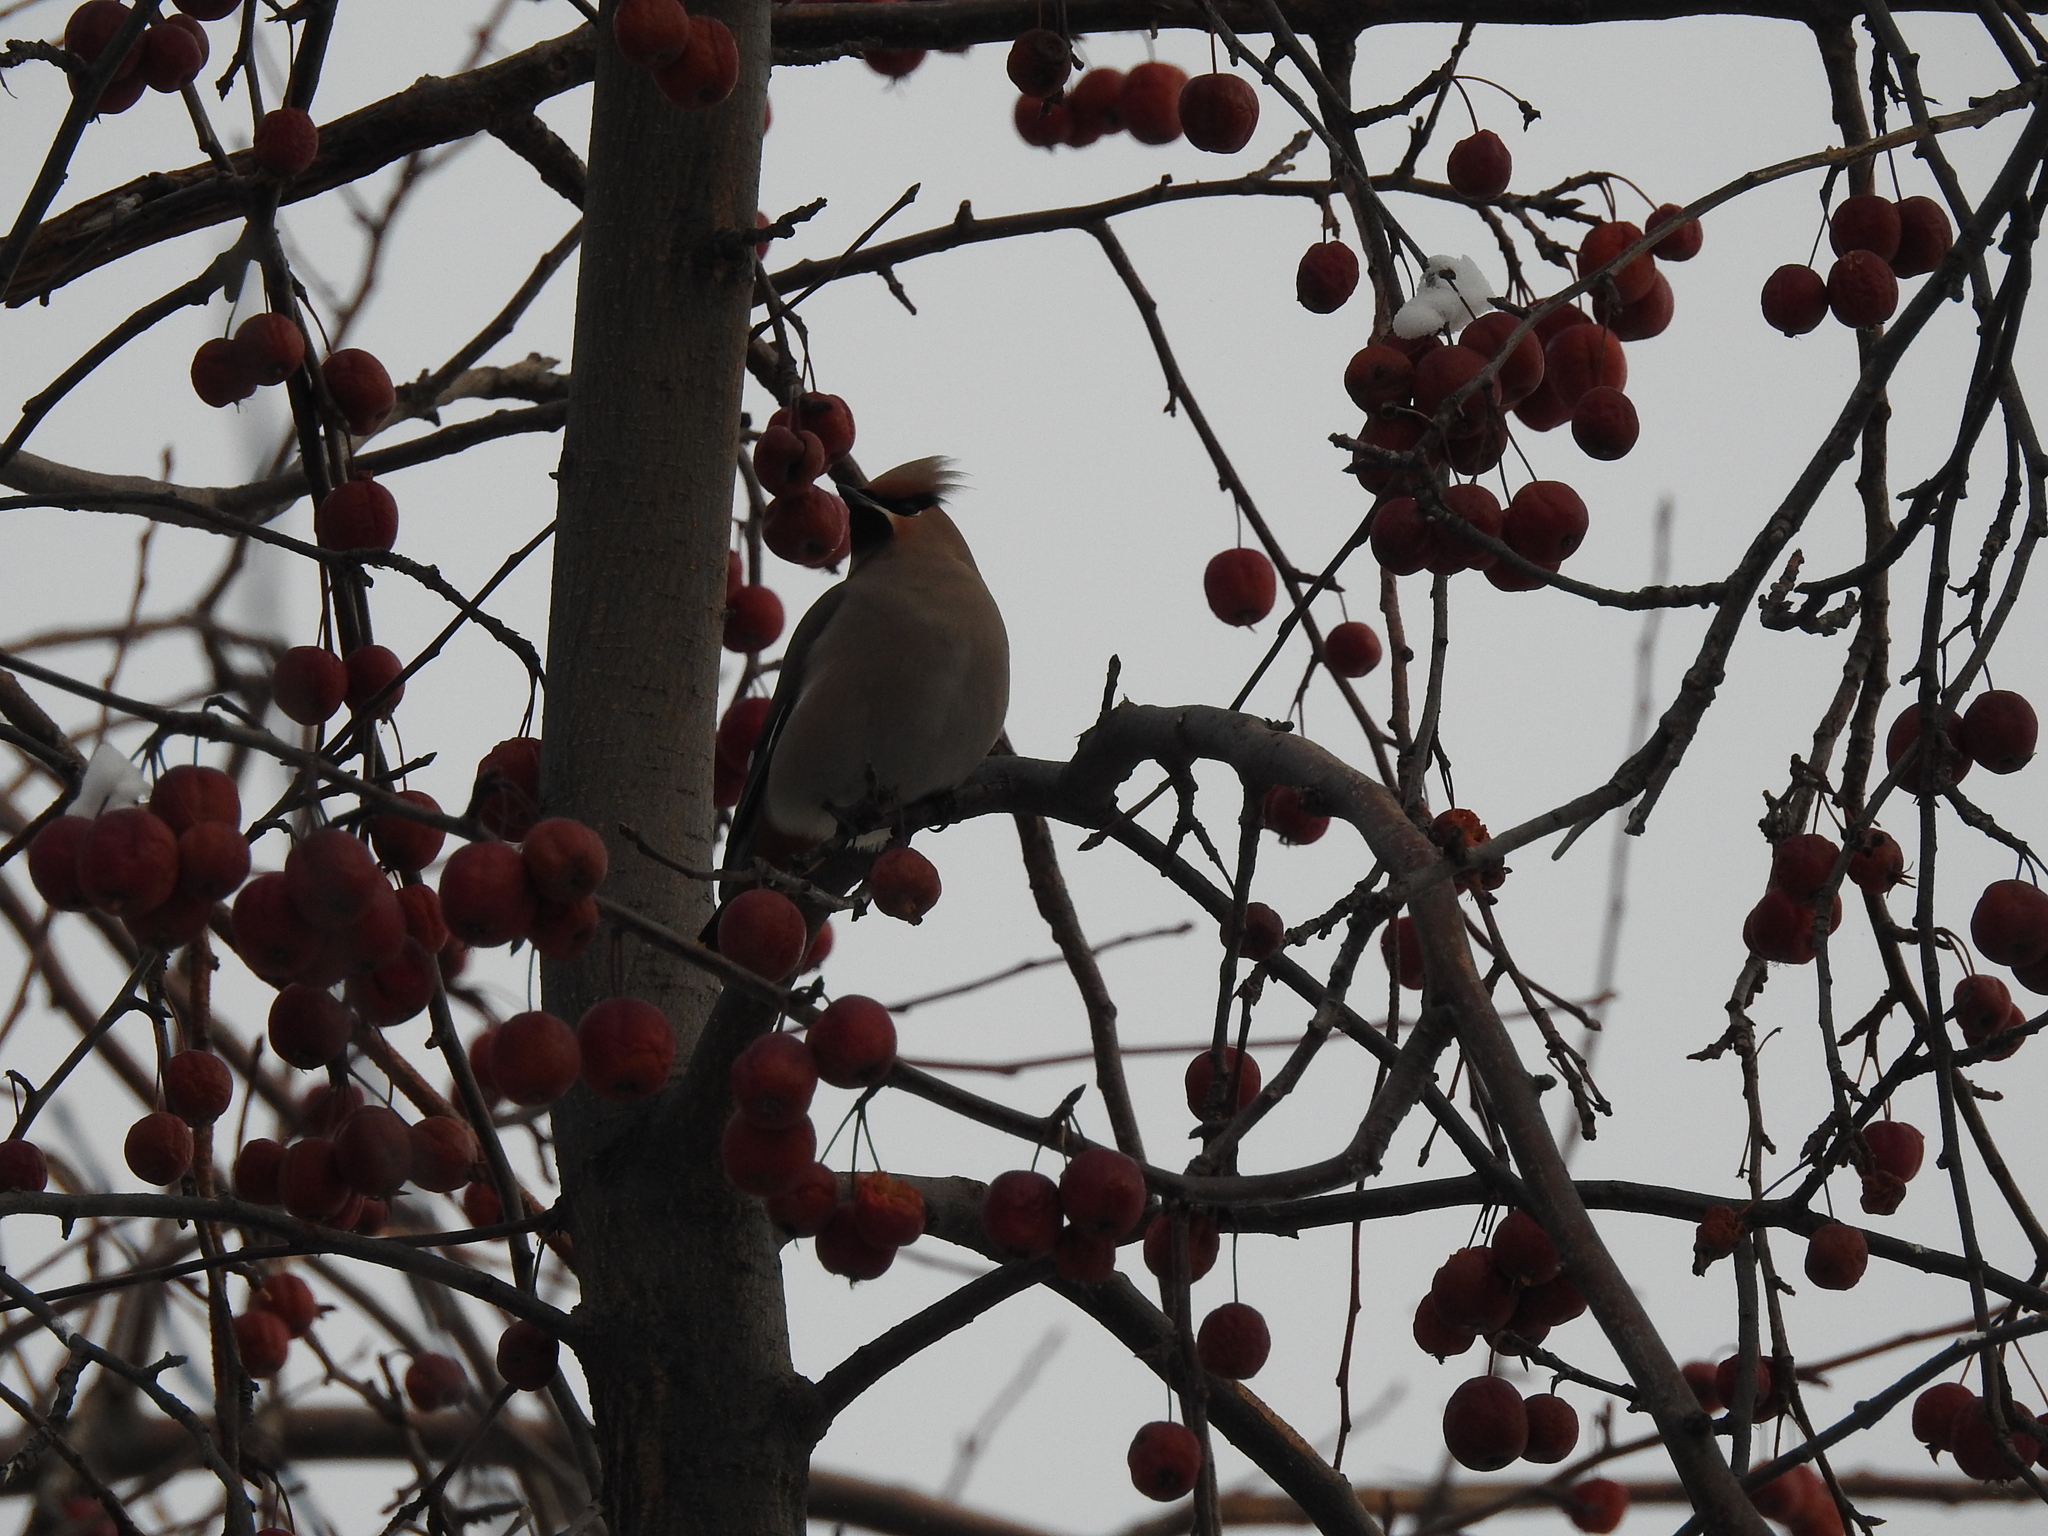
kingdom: Animalia
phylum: Chordata
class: Aves
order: Passeriformes
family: Bombycillidae
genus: Bombycilla
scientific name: Bombycilla garrulus
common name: Bohemian waxwing
